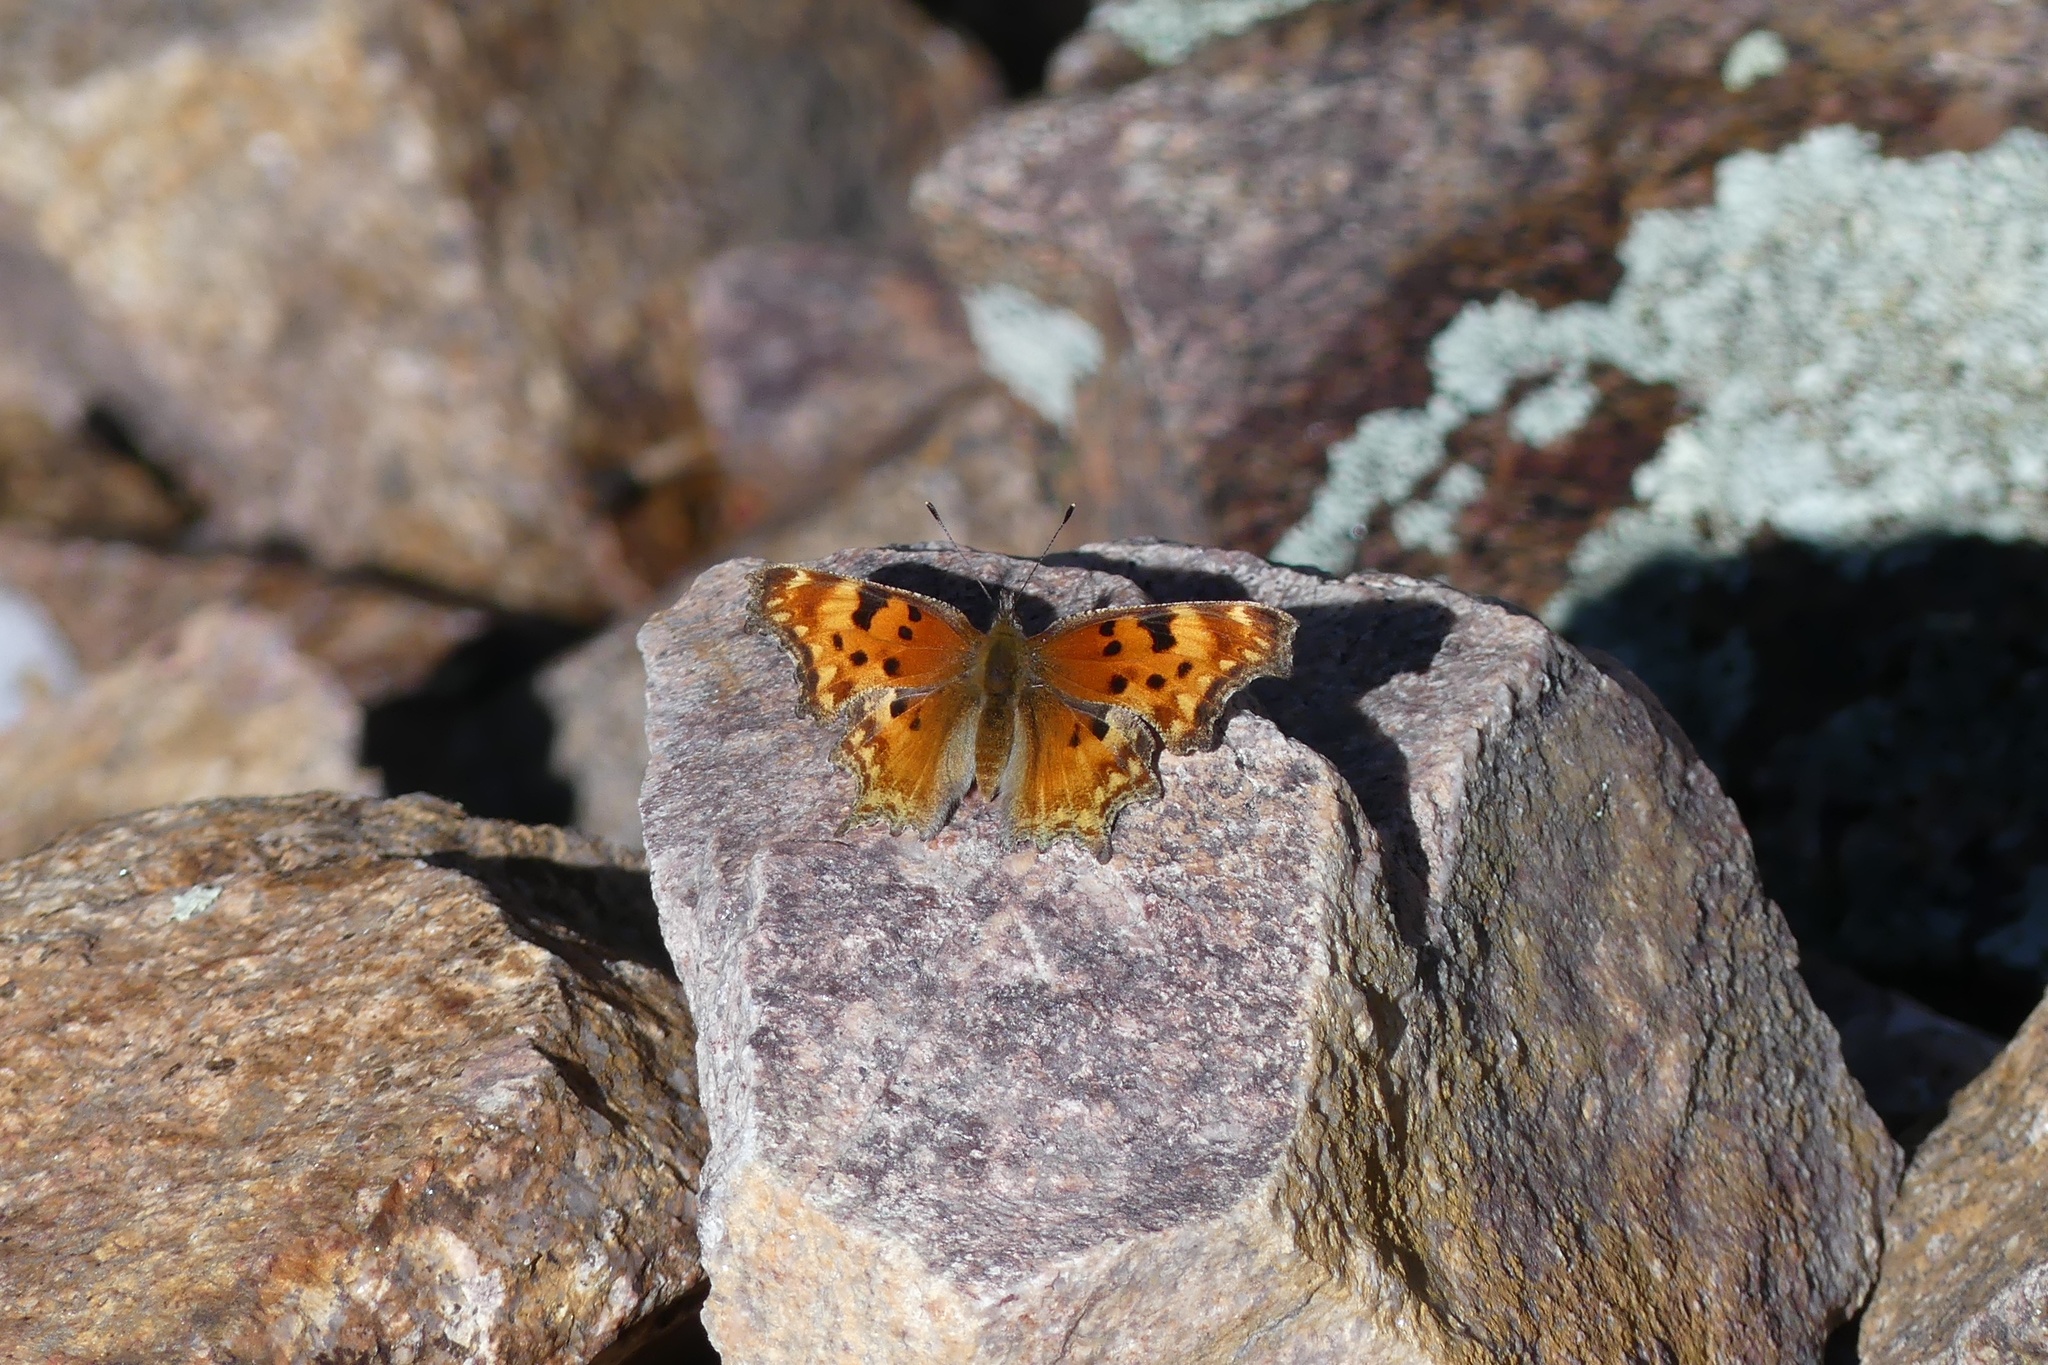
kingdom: Animalia
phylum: Arthropoda
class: Insecta
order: Lepidoptera
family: Nymphalidae
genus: Polygonia
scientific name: Polygonia gracilis
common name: Hoary comma
